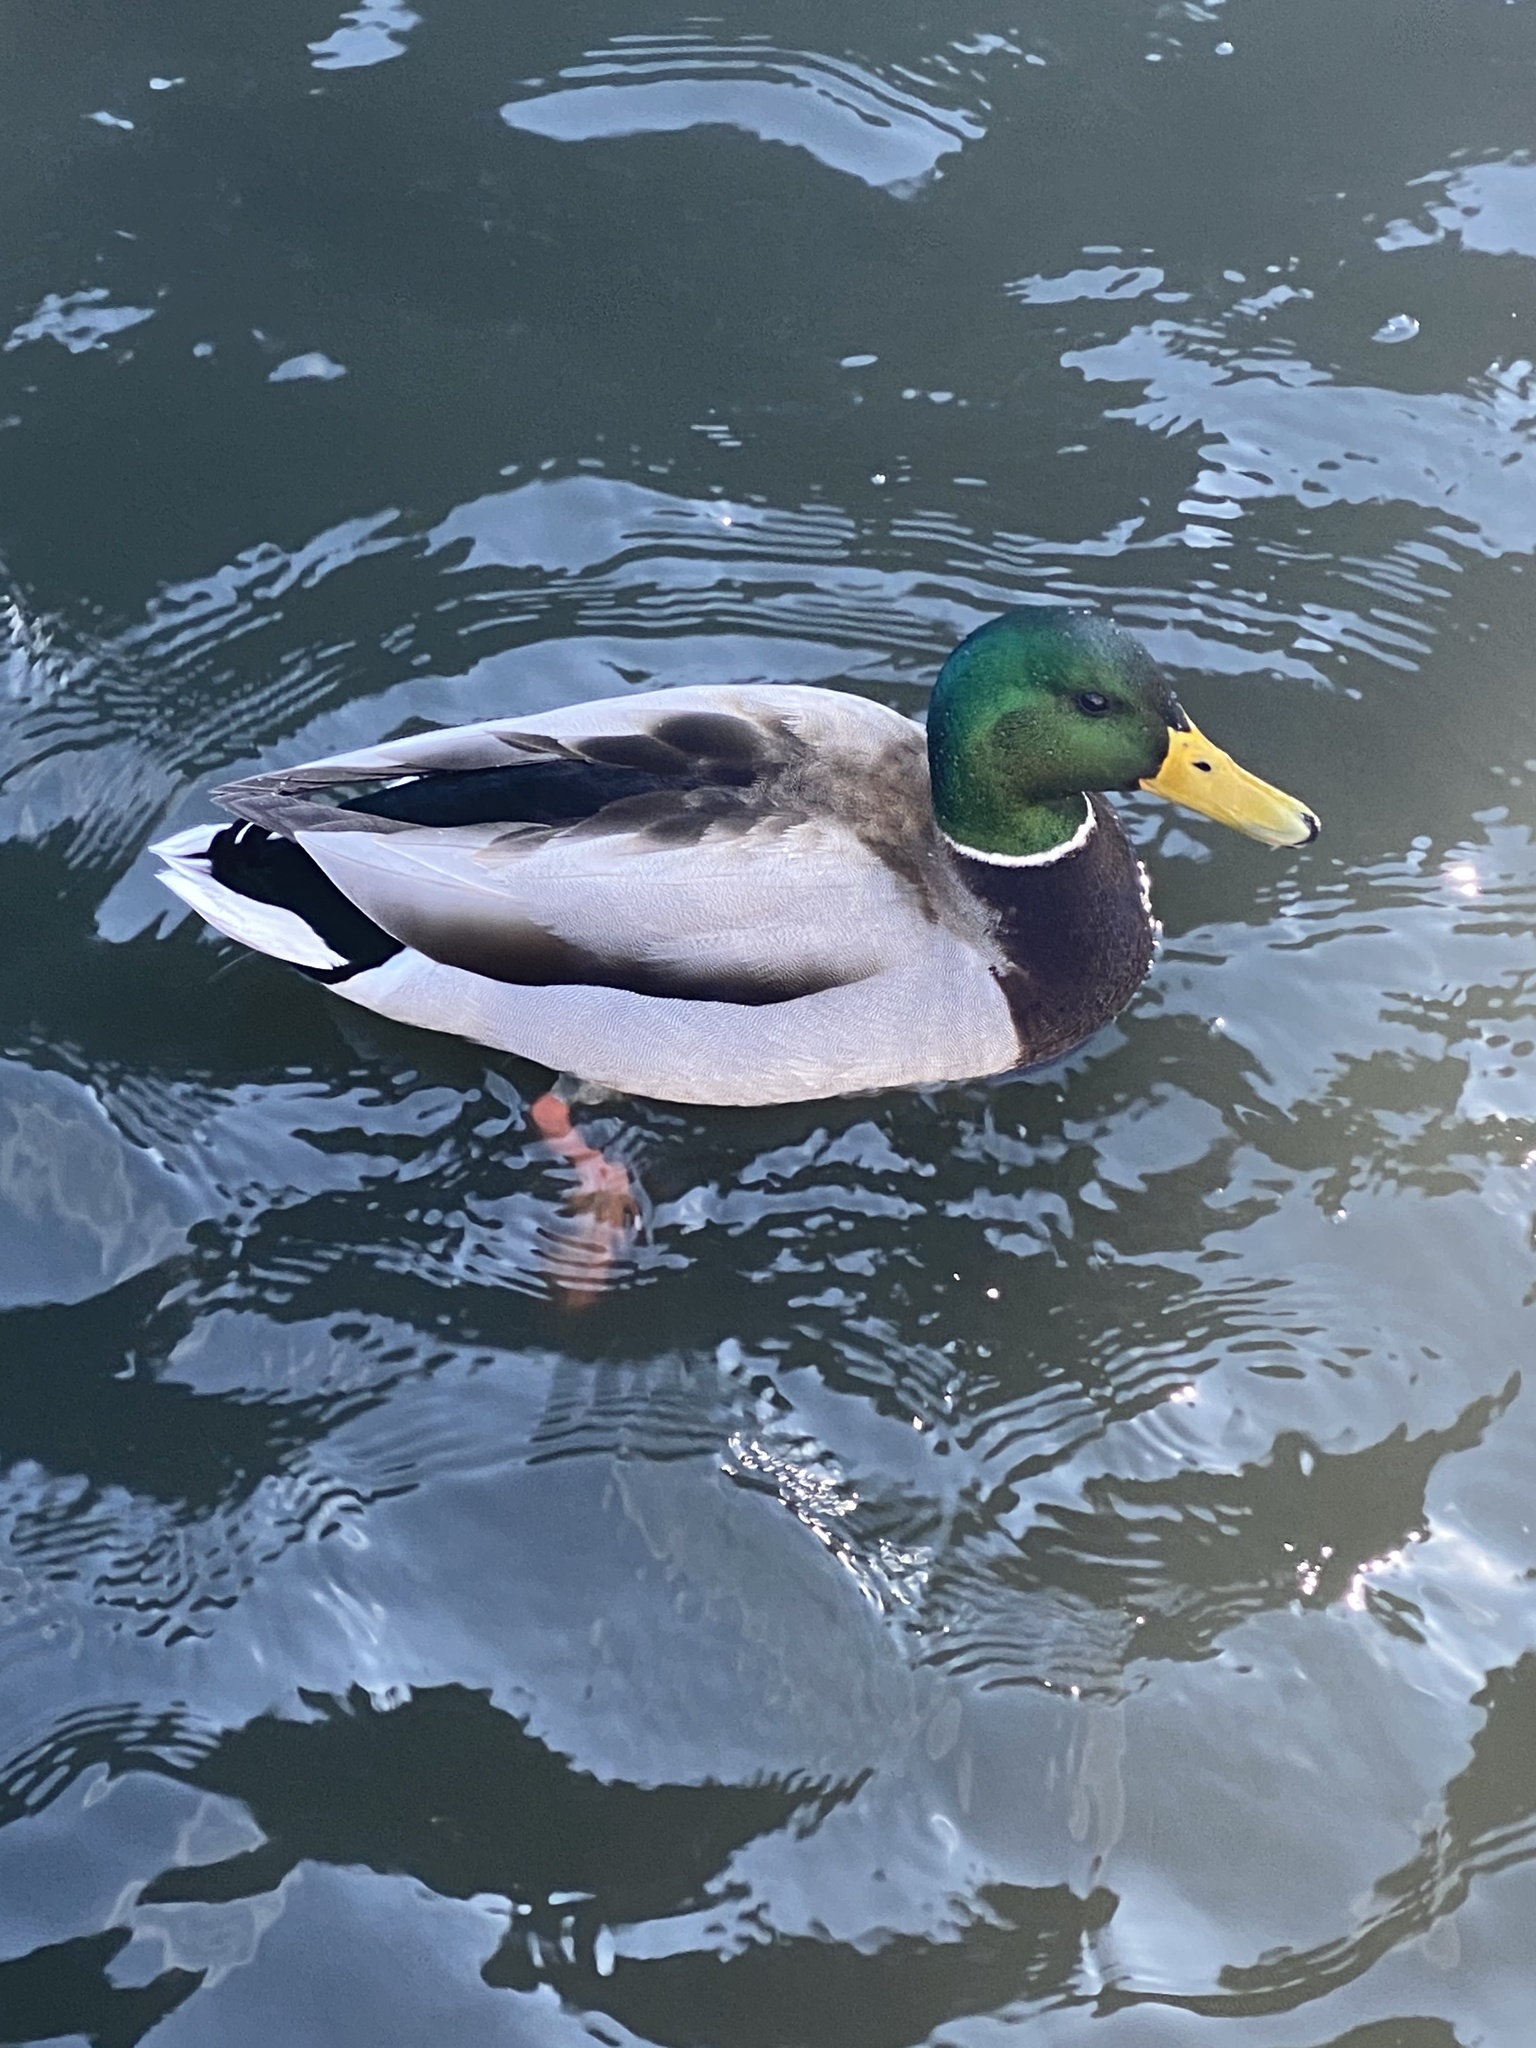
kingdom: Animalia
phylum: Chordata
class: Aves
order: Anseriformes
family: Anatidae
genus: Anas
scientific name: Anas platyrhynchos
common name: Mallard
